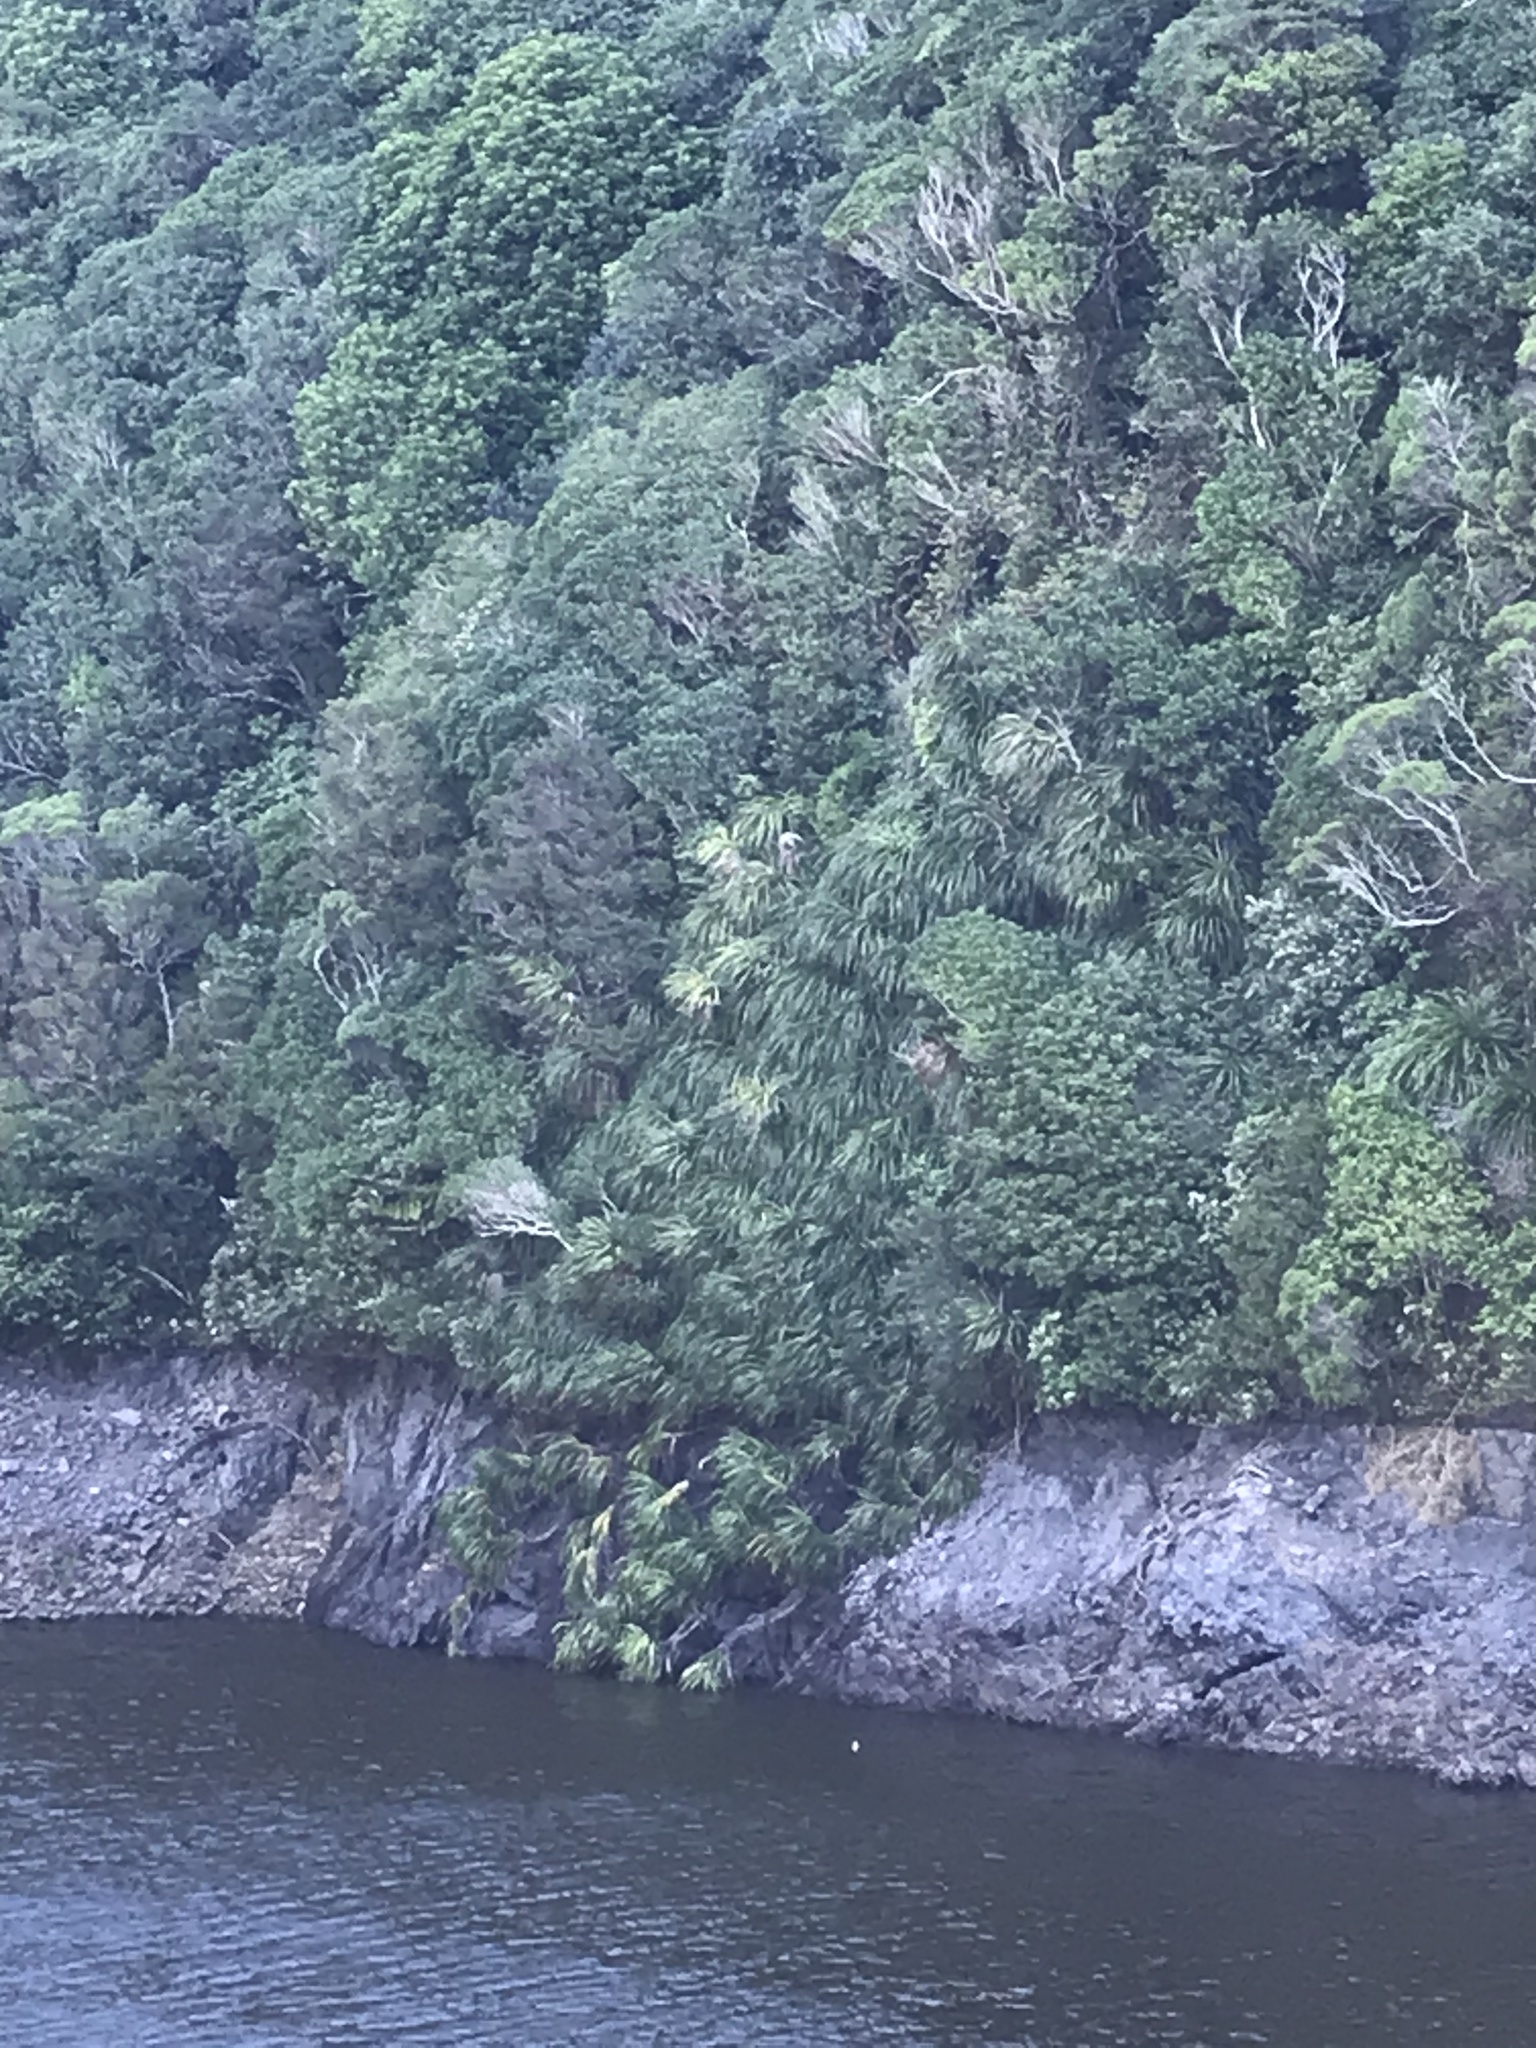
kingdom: Plantae
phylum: Tracheophyta
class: Liliopsida
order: Pandanales
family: Pandanaceae
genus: Freycinetia
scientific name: Freycinetia banksii
